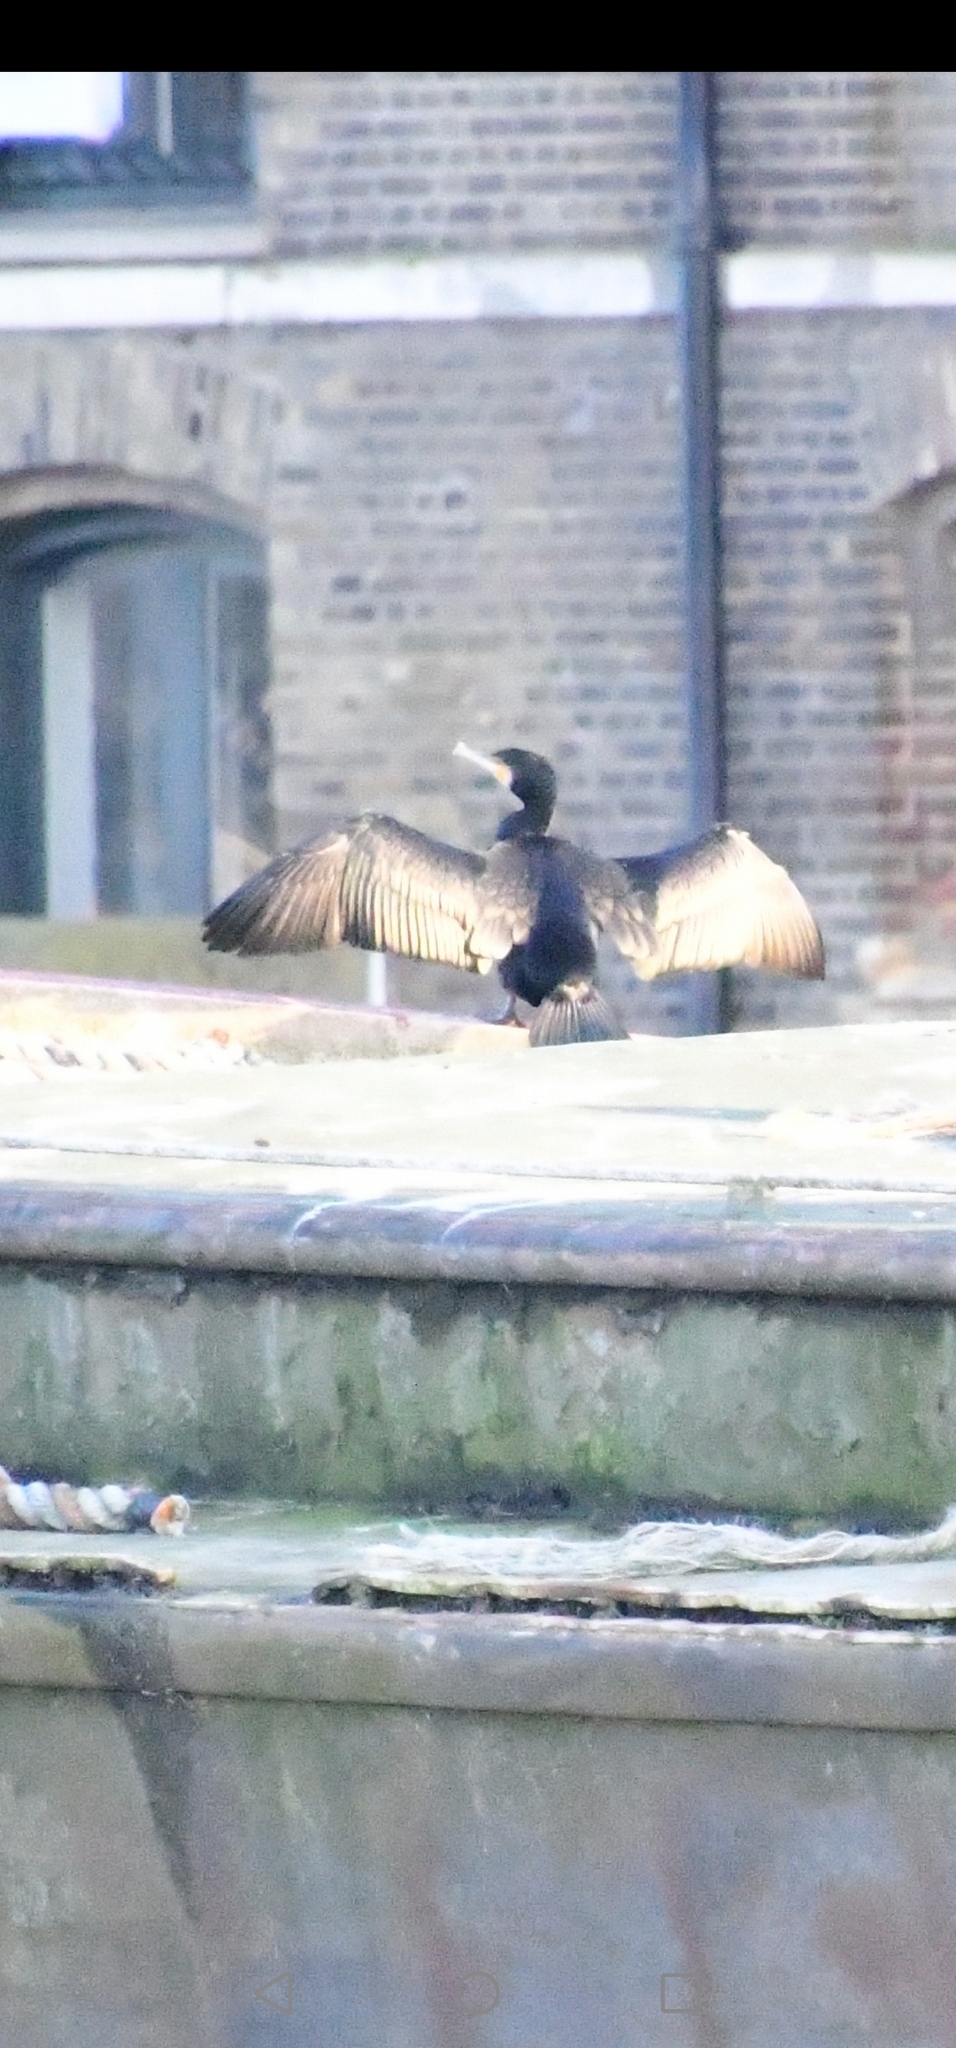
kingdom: Animalia
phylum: Chordata
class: Aves
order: Suliformes
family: Phalacrocoracidae
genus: Phalacrocorax
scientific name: Phalacrocorax carbo
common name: Great cormorant
